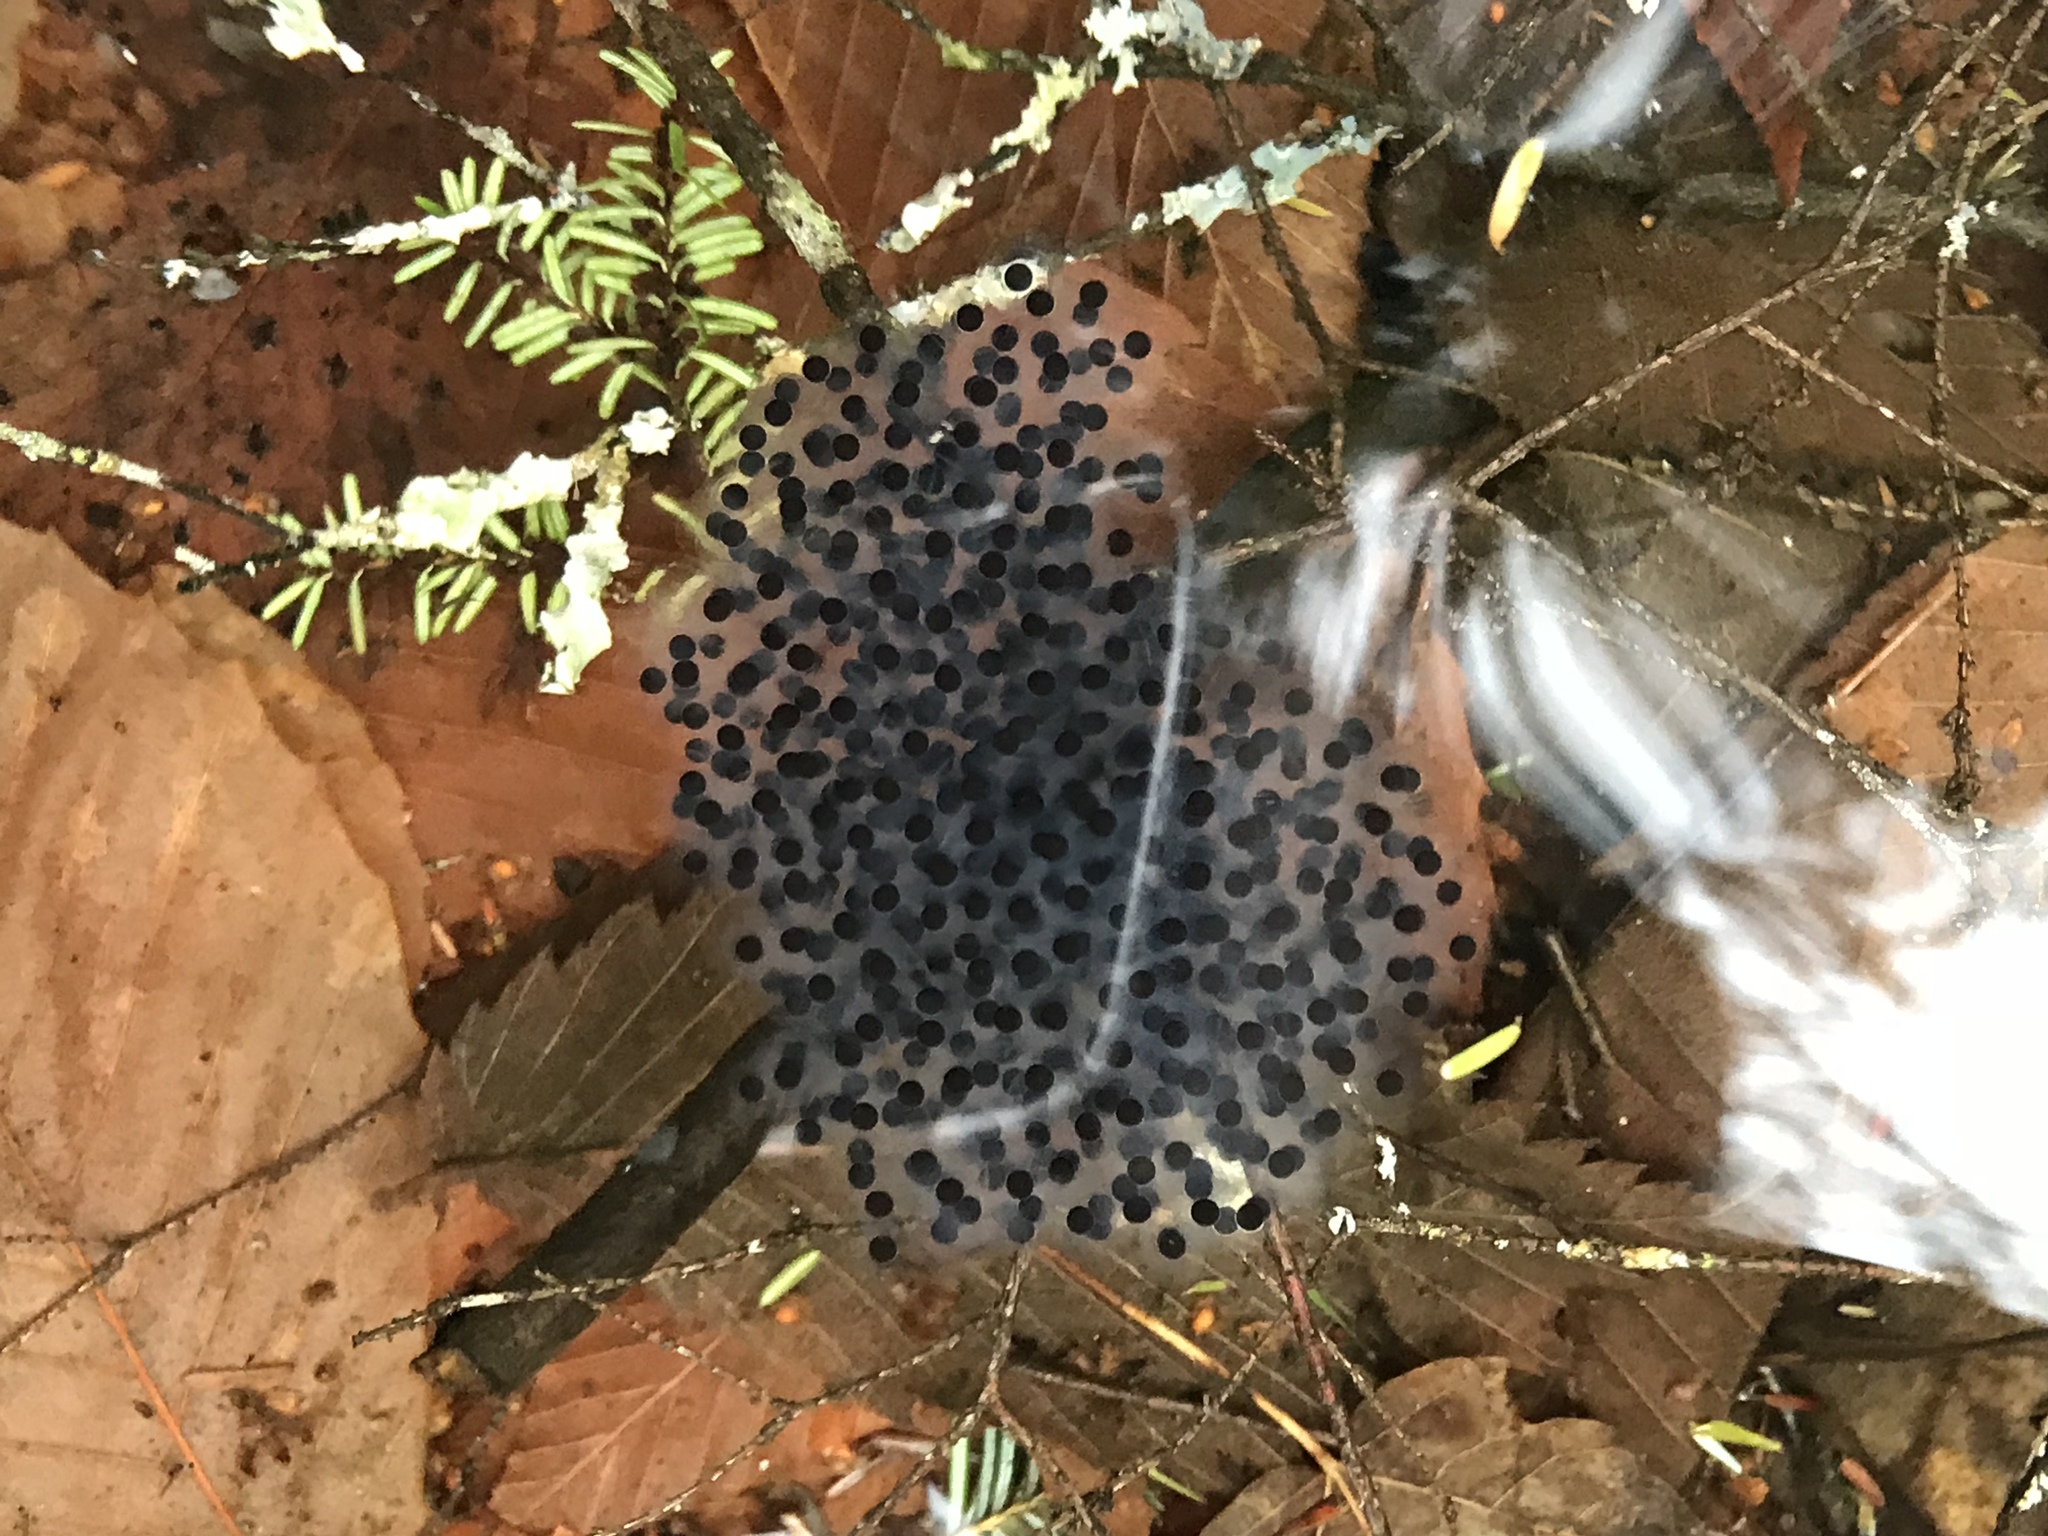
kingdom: Animalia
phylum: Chordata
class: Amphibia
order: Anura
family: Ranidae
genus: Lithobates
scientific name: Lithobates sylvaticus
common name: Wood frog
